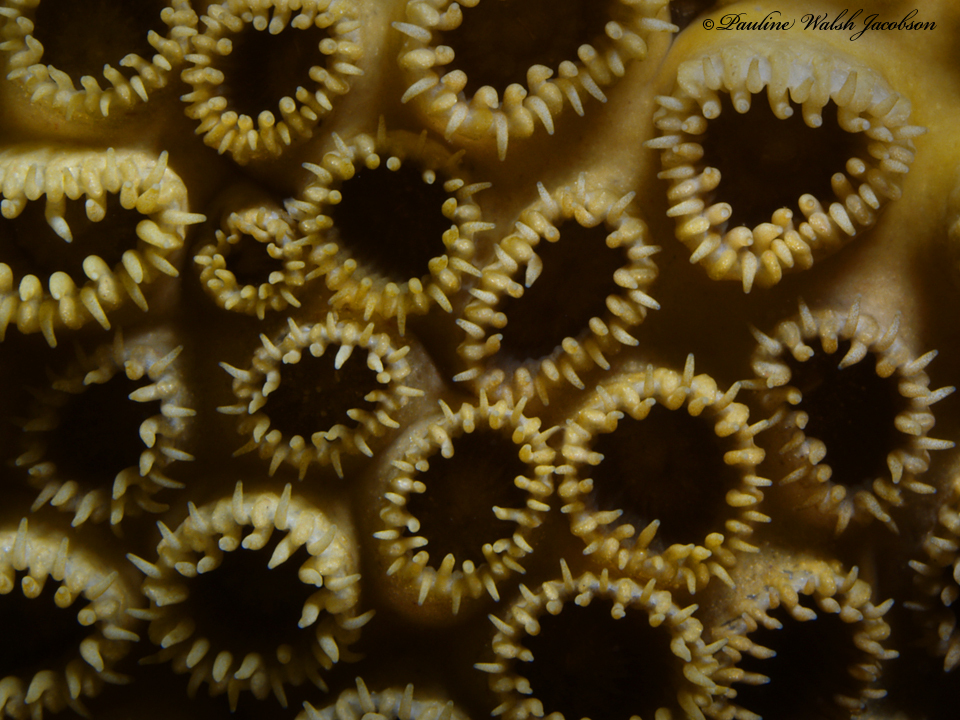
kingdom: Animalia
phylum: Cnidaria
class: Anthozoa
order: Zoantharia
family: Sphenopidae
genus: Palythoa
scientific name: Palythoa caribaeorum
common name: Encrusting colonial anemone
